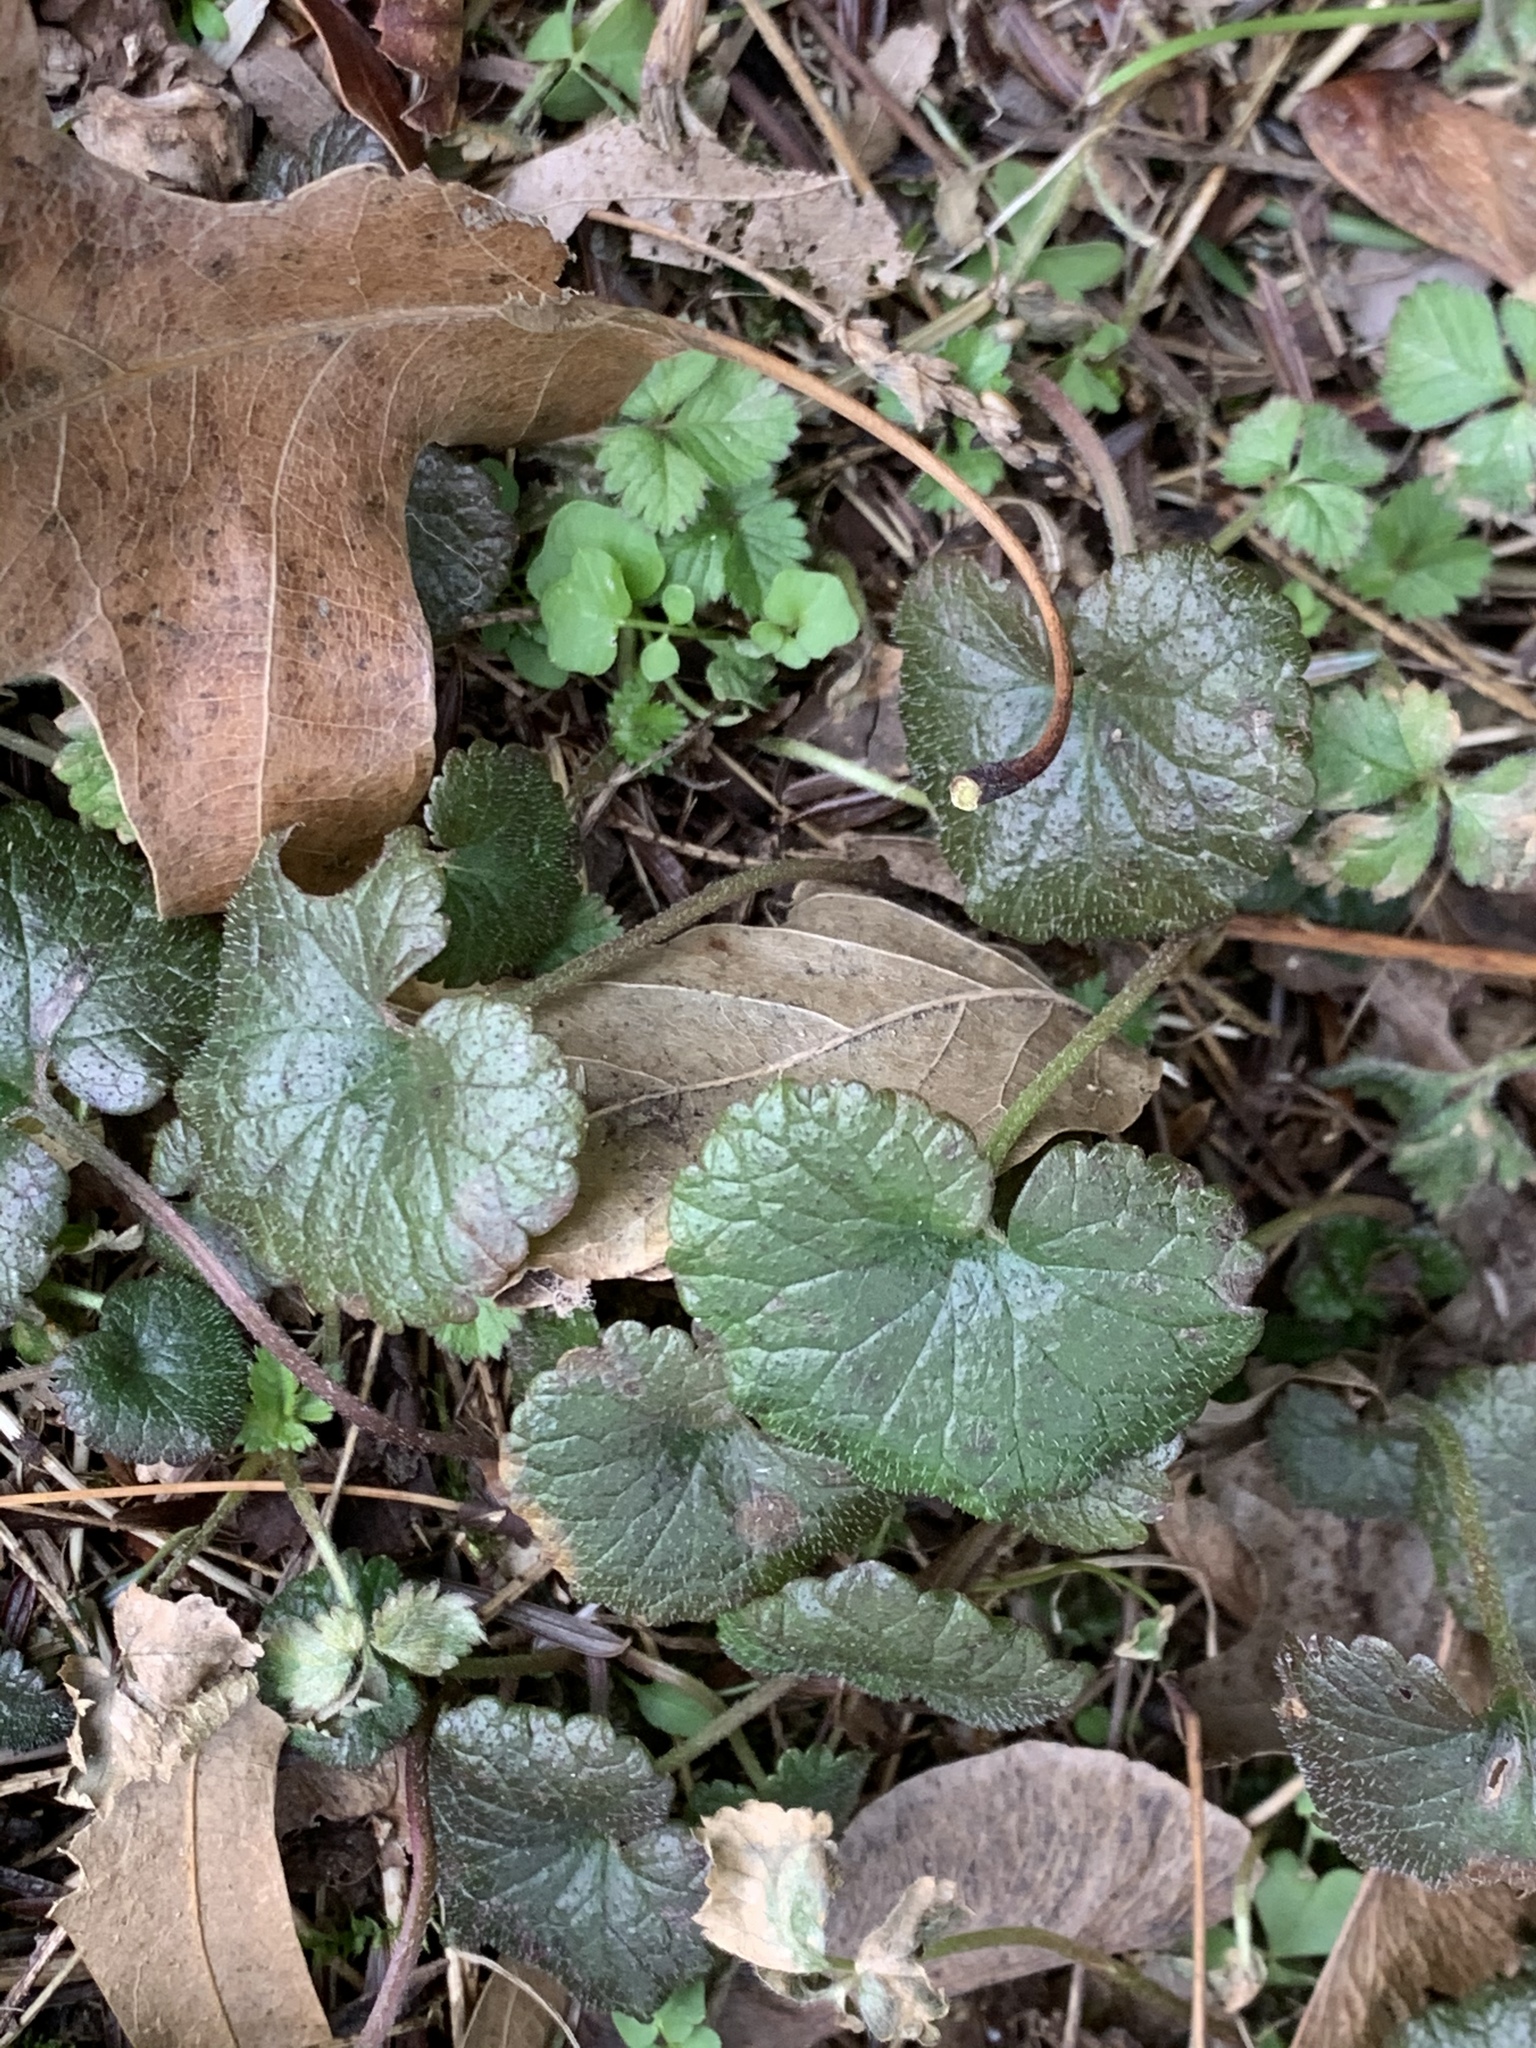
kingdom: Plantae
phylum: Tracheophyta
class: Magnoliopsida
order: Lamiales
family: Lamiaceae
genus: Glechoma
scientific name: Glechoma hederacea
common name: Ground ivy
